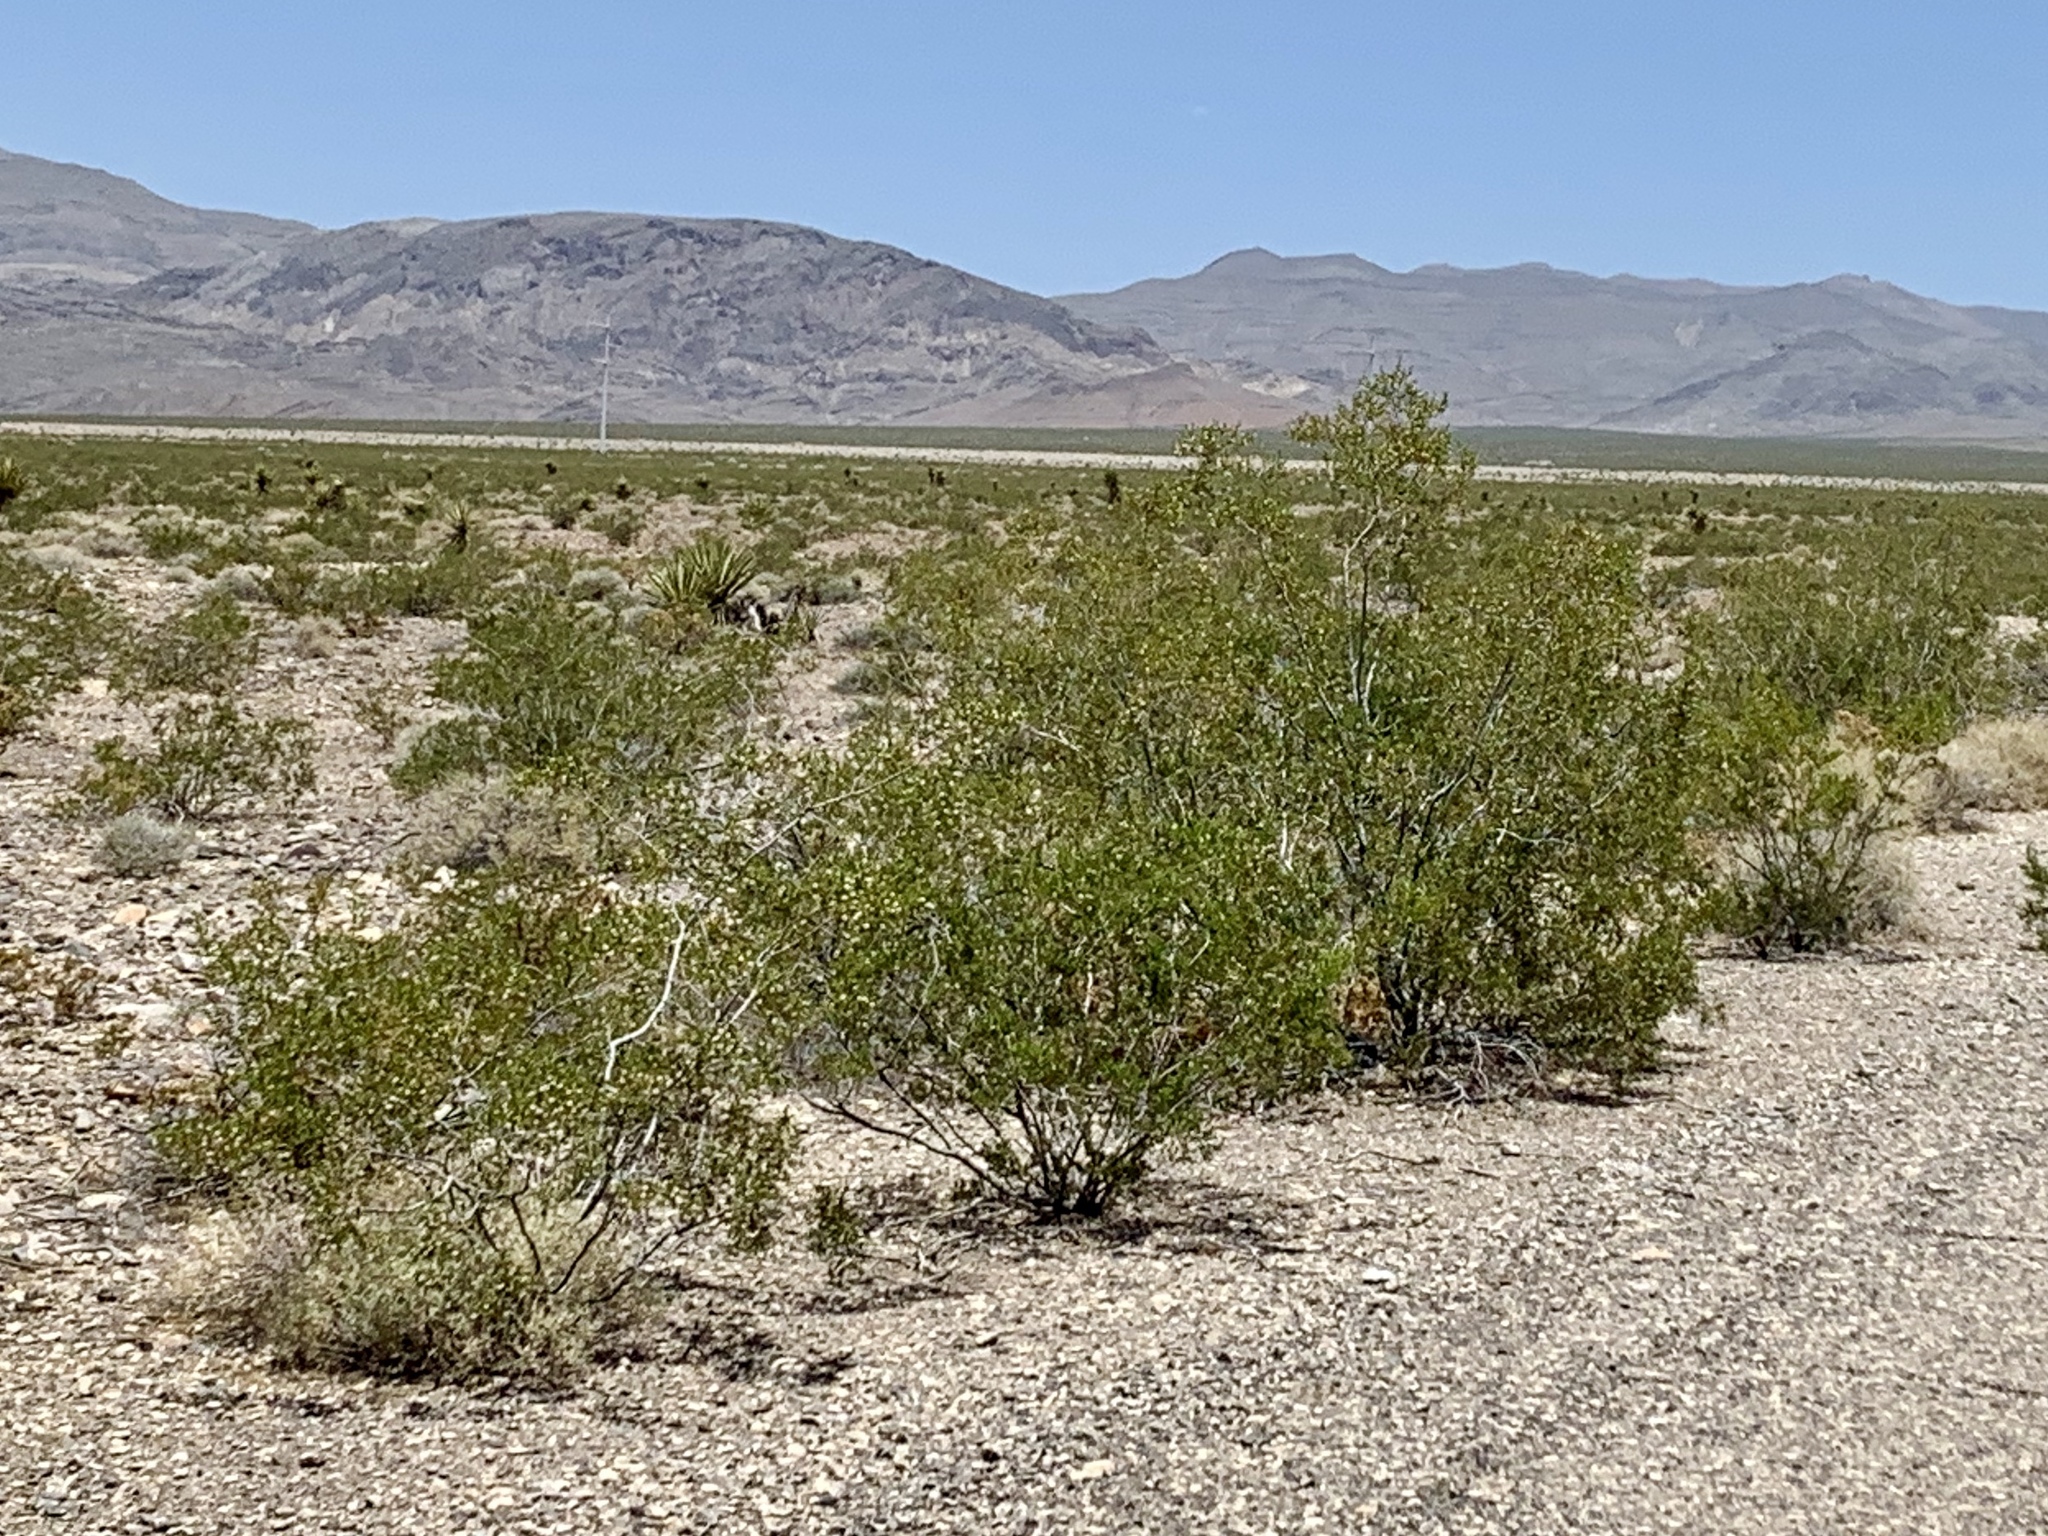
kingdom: Plantae
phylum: Tracheophyta
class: Magnoliopsida
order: Zygophyllales
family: Zygophyllaceae
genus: Larrea
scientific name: Larrea tridentata
